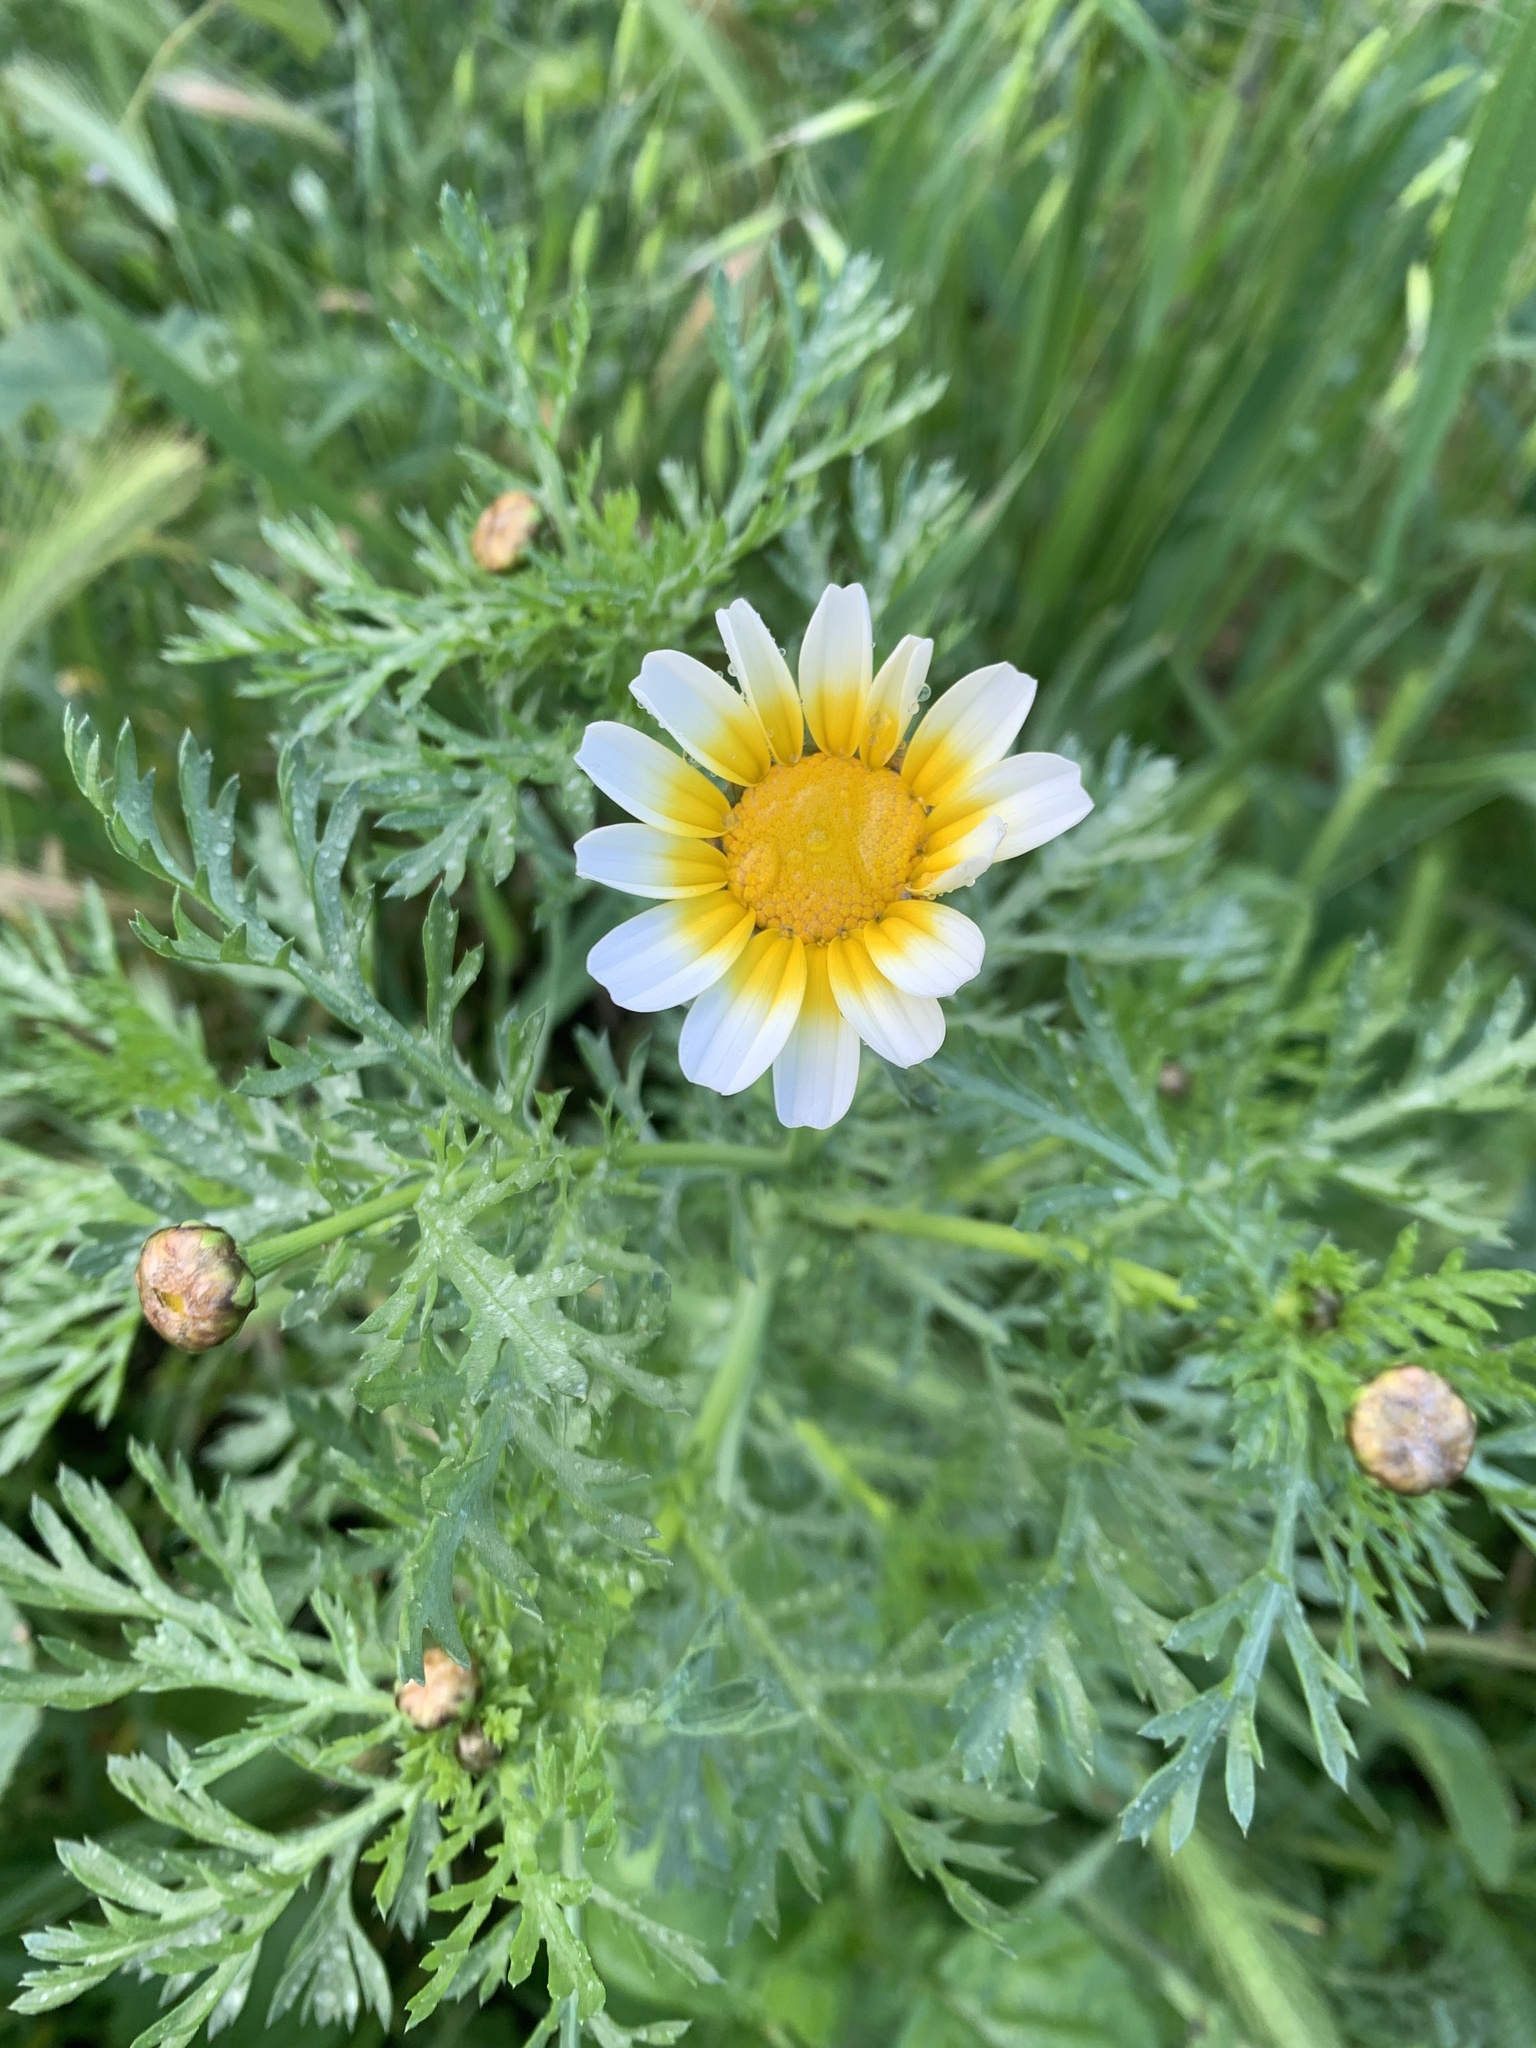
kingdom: Plantae
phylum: Tracheophyta
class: Magnoliopsida
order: Asterales
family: Asteraceae
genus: Glebionis
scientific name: Glebionis coronaria
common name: Crowndaisy
